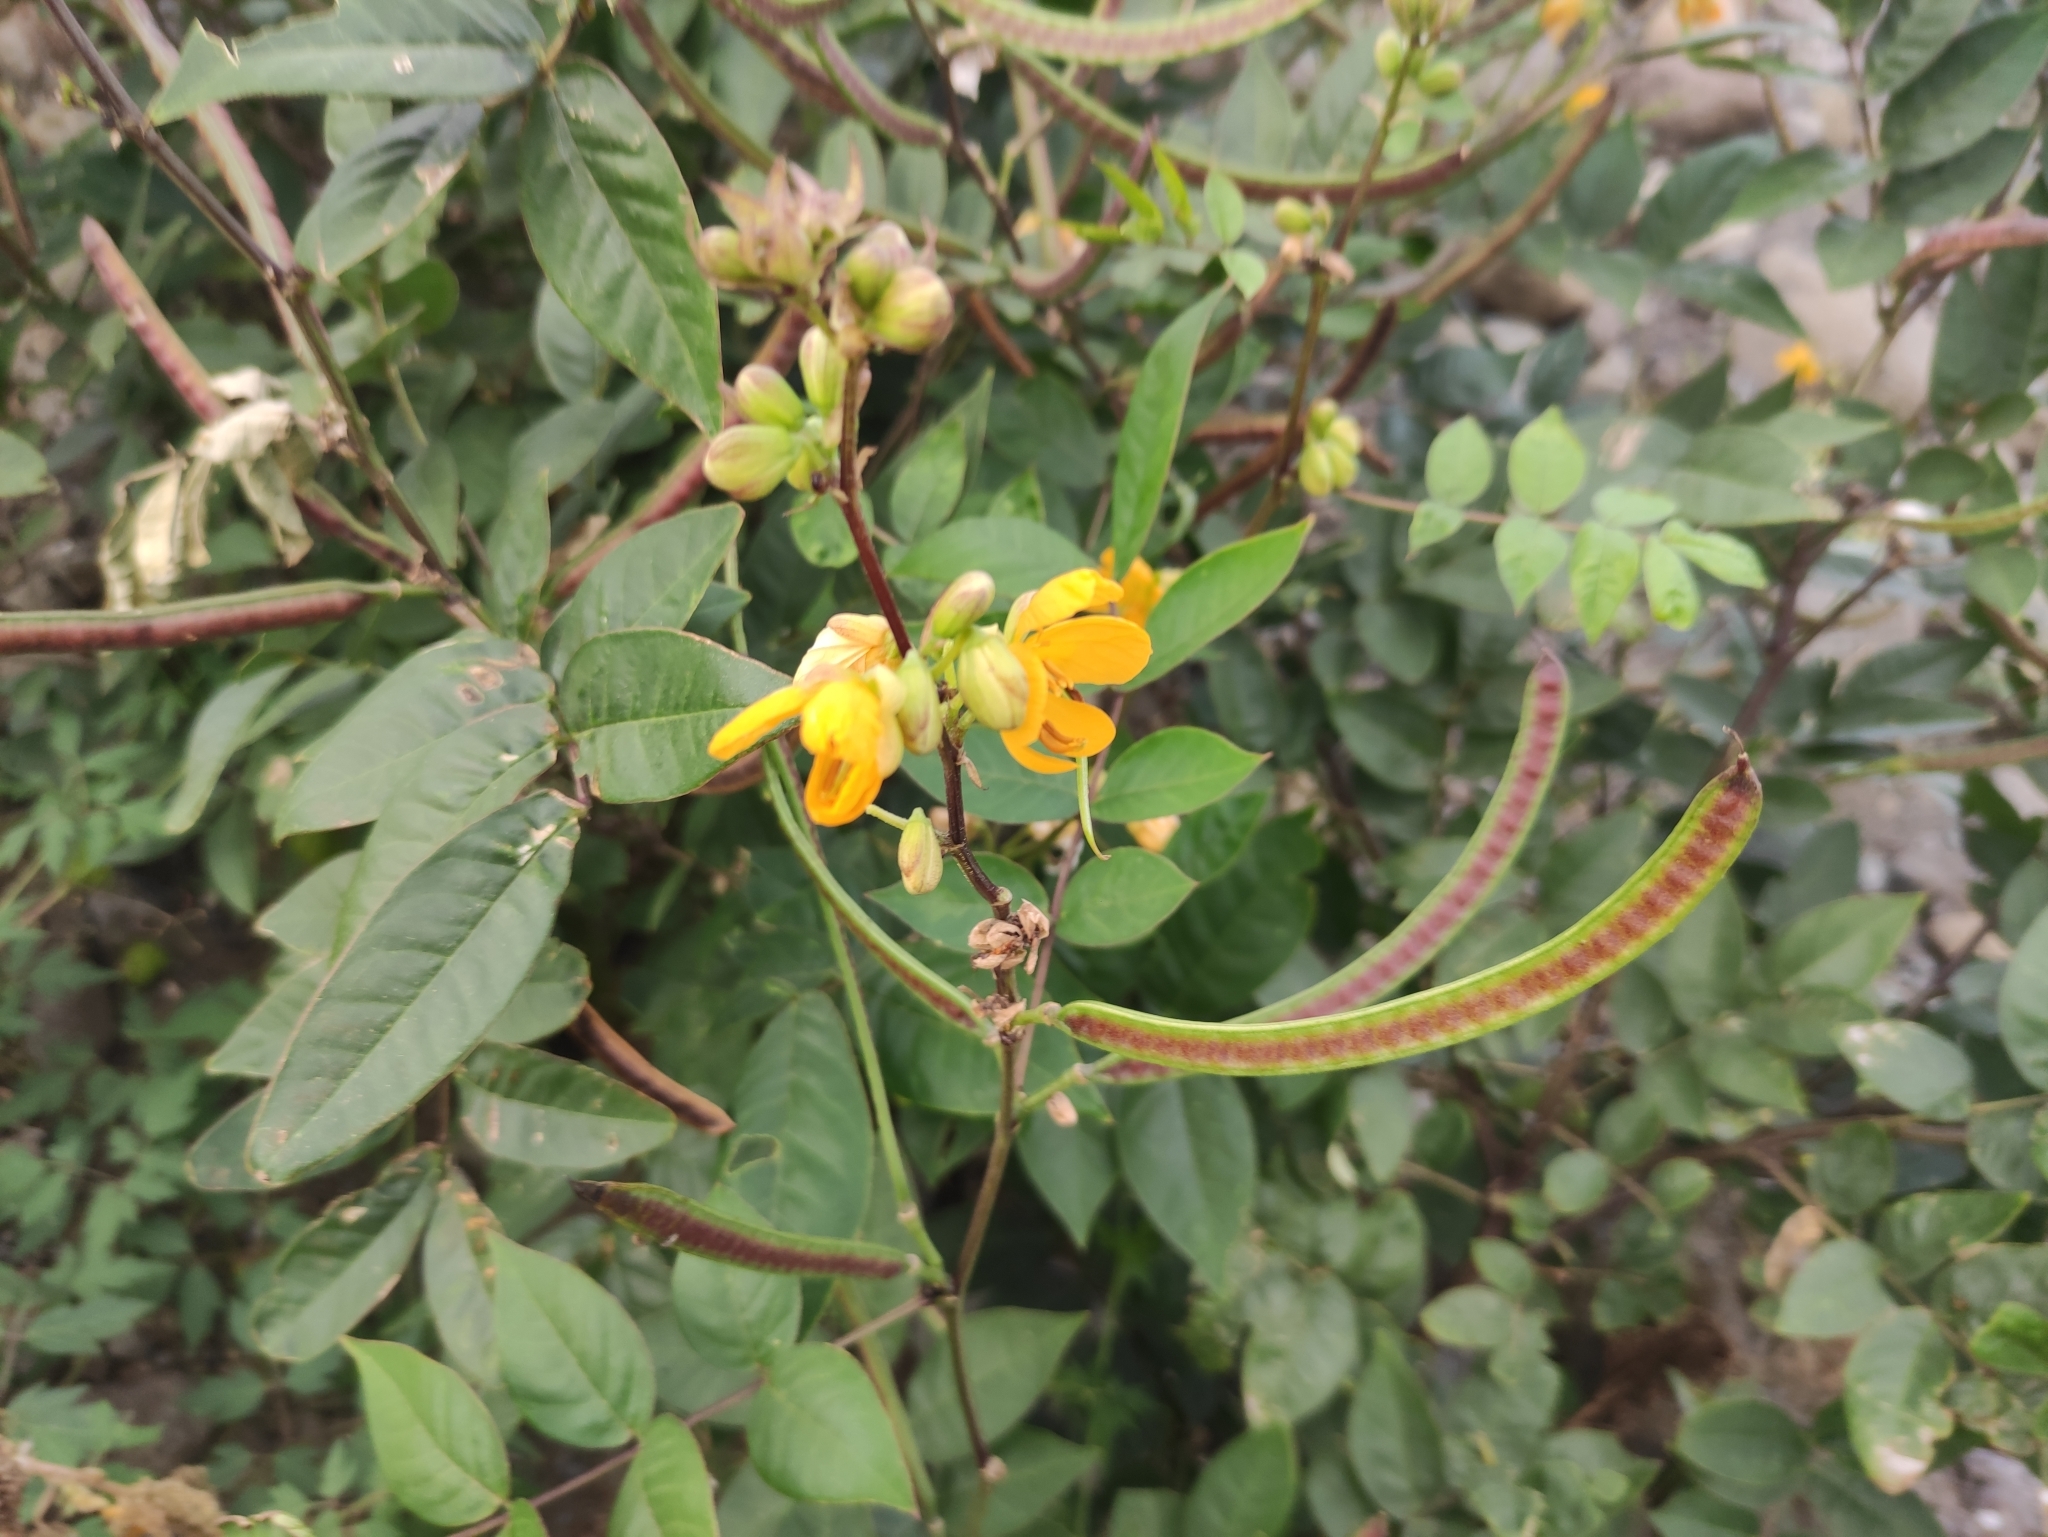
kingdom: Plantae
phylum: Tracheophyta
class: Magnoliopsida
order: Fabales
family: Fabaceae
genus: Senna
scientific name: Senna occidentalis
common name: Septicweed
